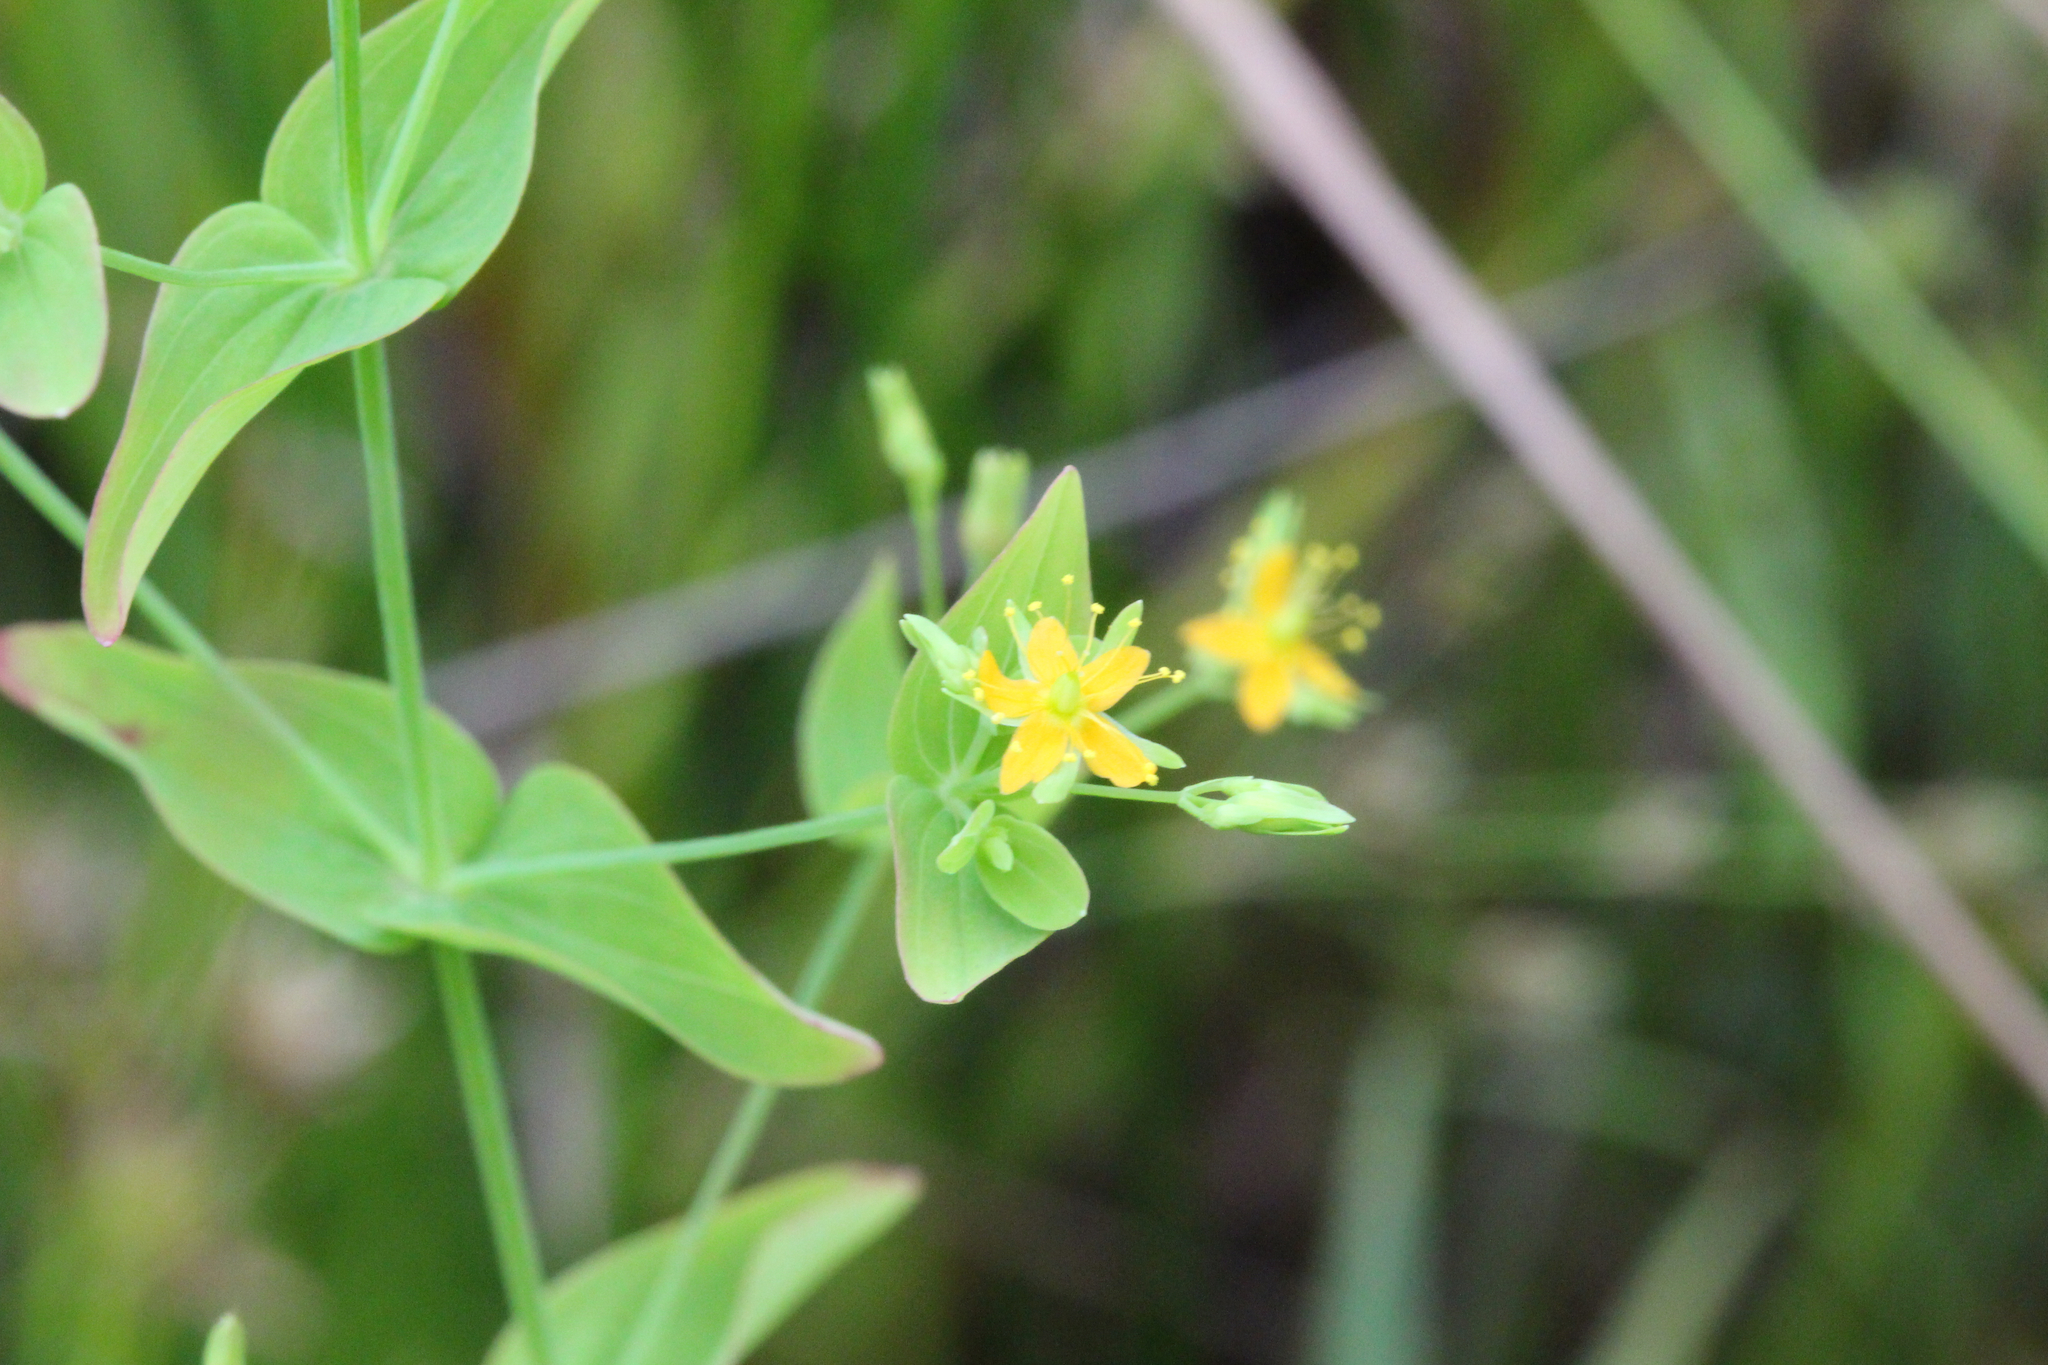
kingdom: Plantae
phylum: Tracheophyta
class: Magnoliopsida
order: Malpighiales
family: Hypericaceae
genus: Hypericum
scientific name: Hypericum mutilum
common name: Dwarf st. john's-wort
